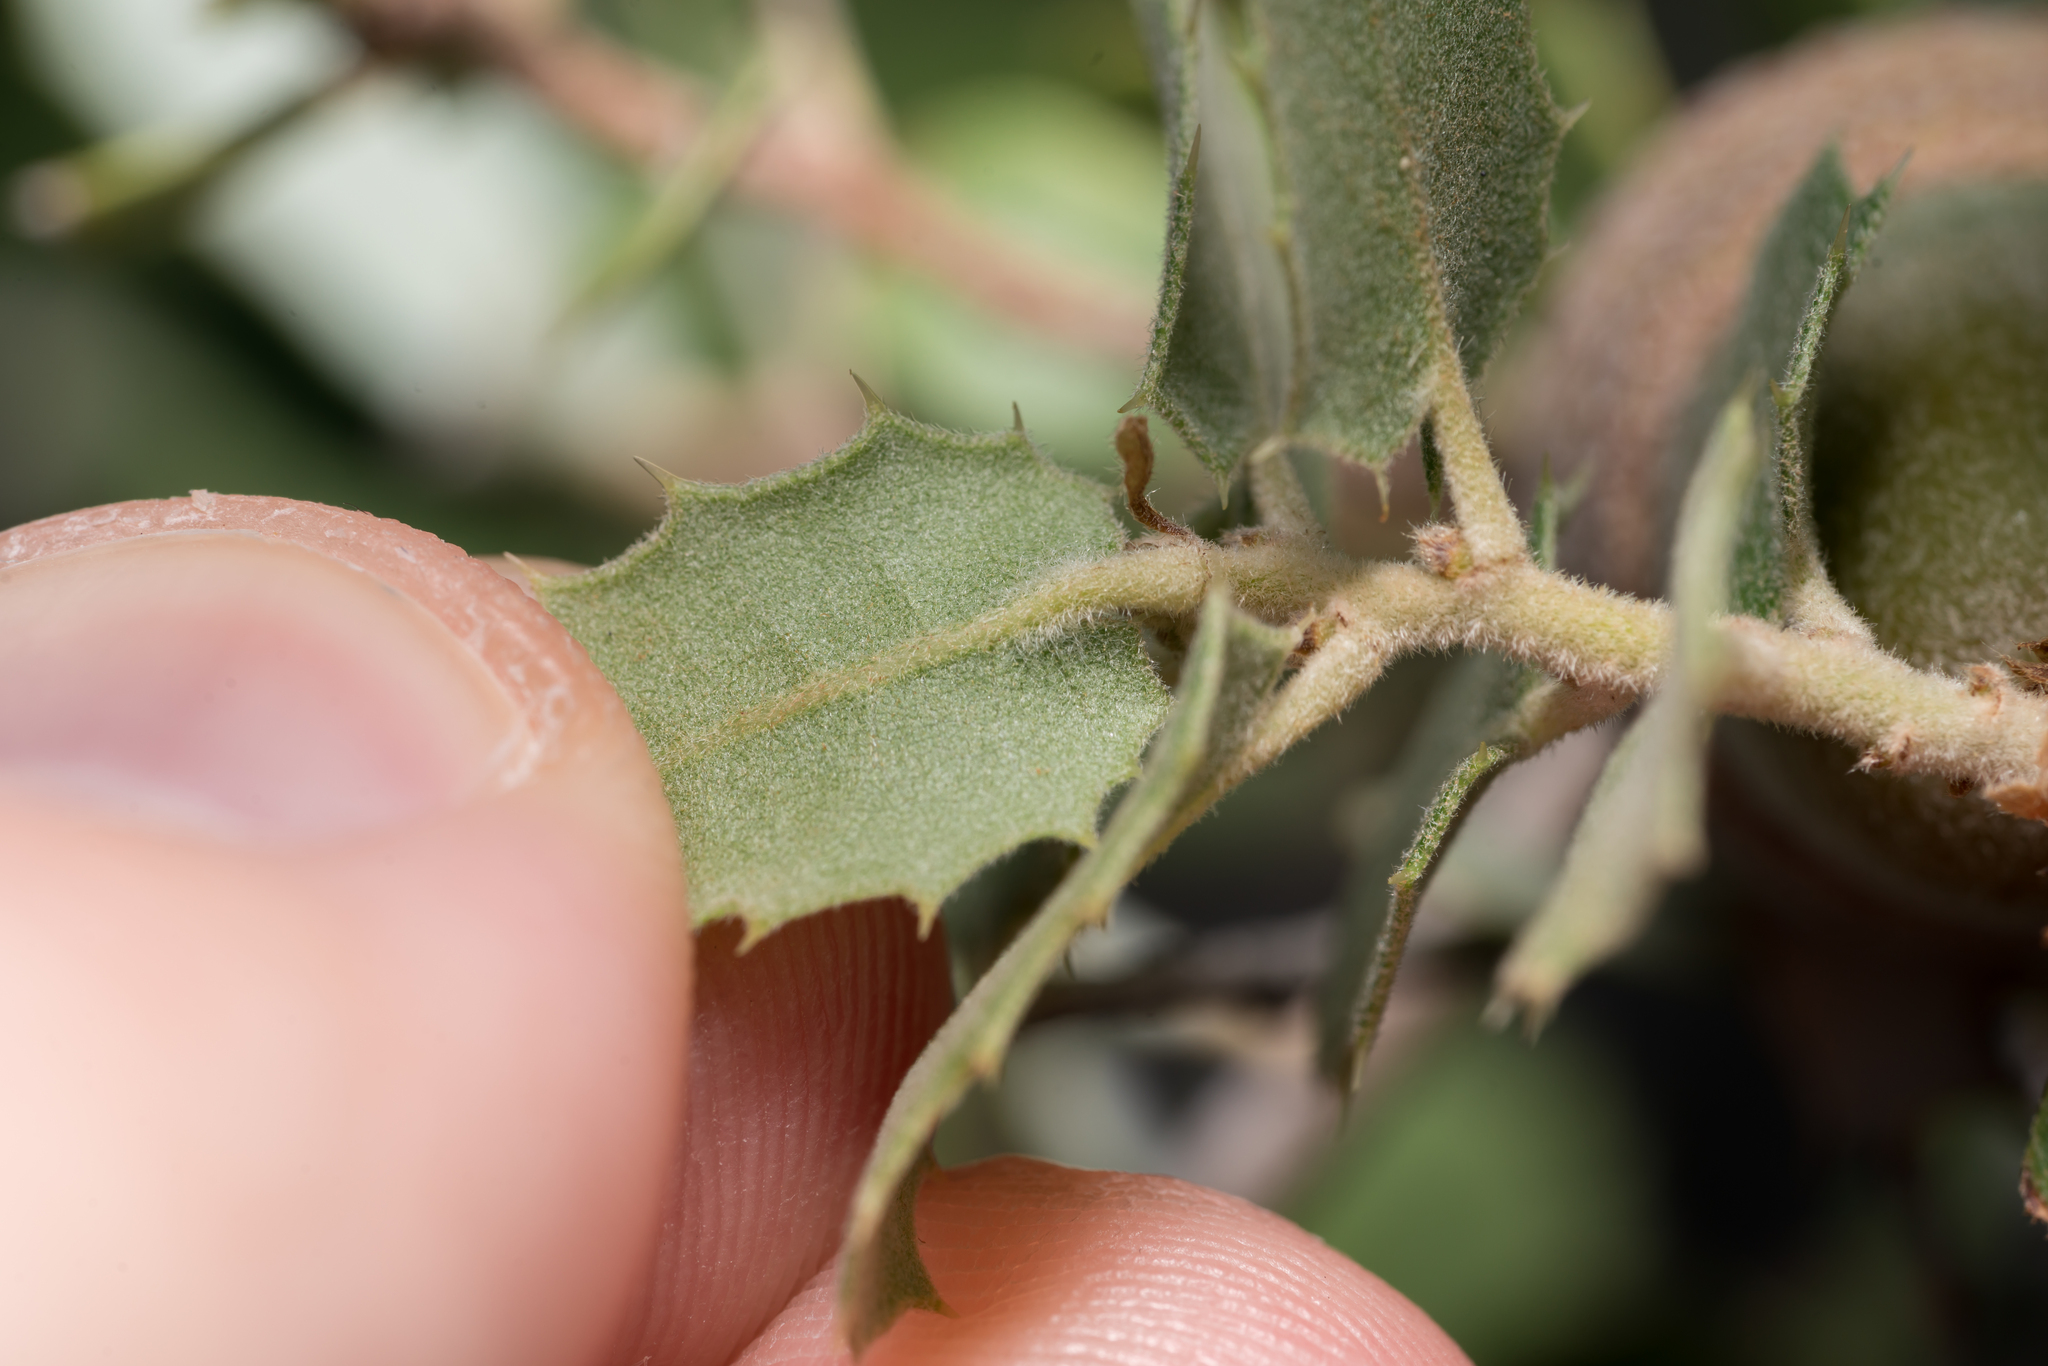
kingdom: Plantae
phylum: Tracheophyta
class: Magnoliopsida
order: Fagales
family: Fagaceae
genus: Quercus
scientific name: Quercus aucheri
